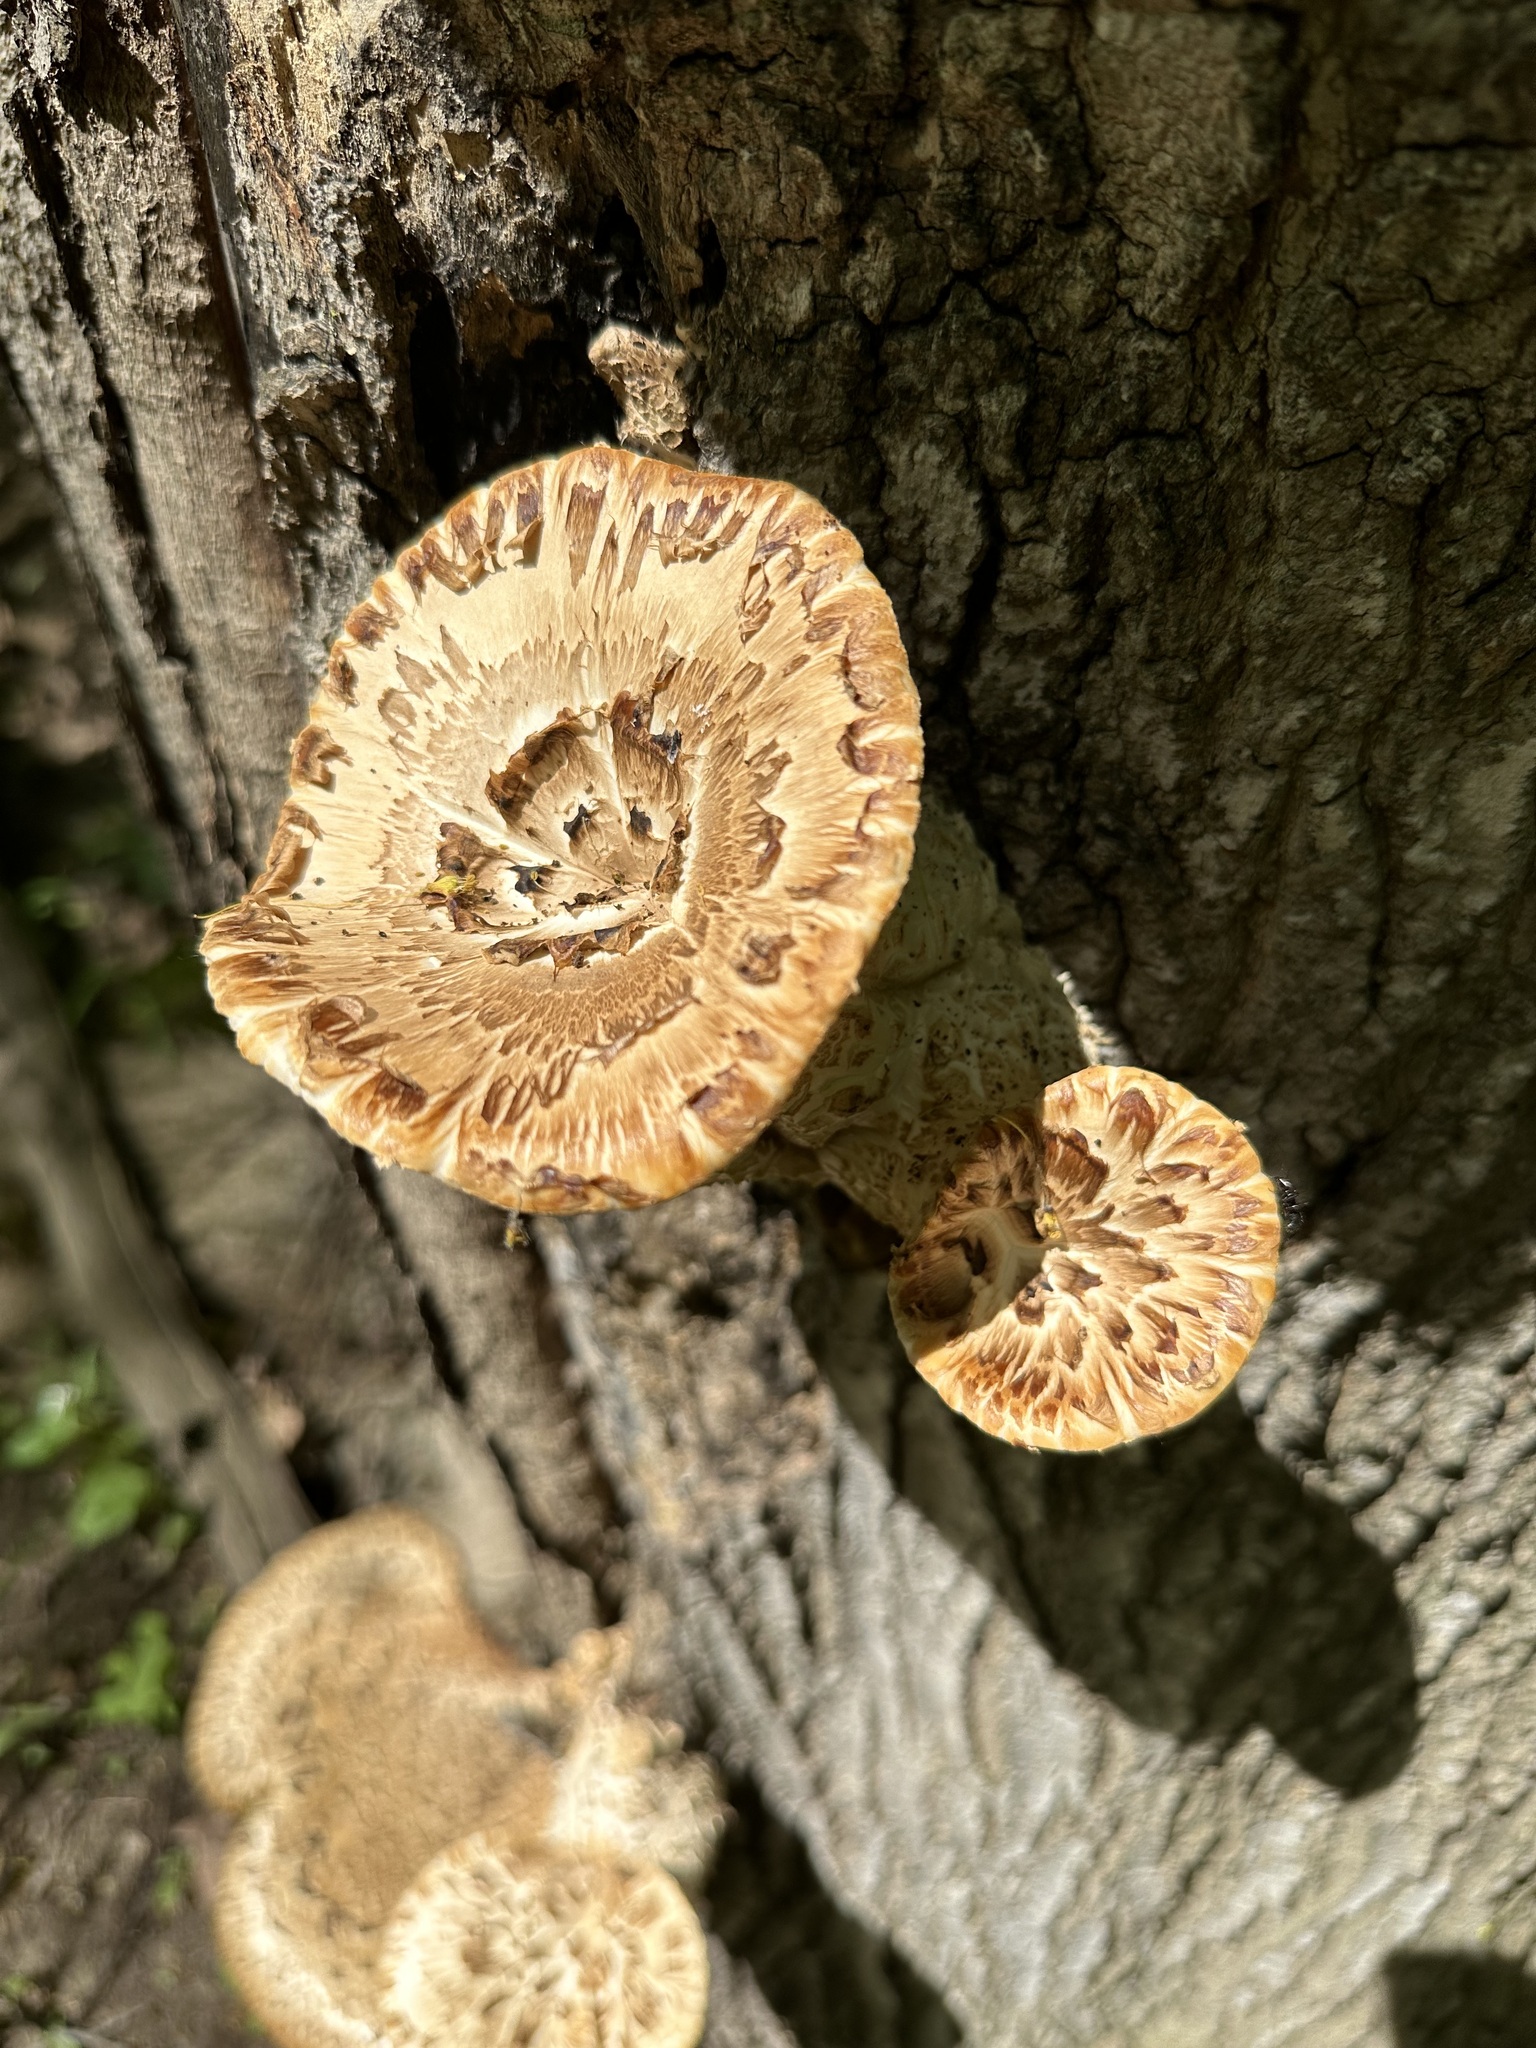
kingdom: Fungi
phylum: Basidiomycota
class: Agaricomycetes
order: Polyporales
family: Polyporaceae
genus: Cerioporus
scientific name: Cerioporus squamosus
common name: Dryad's saddle
